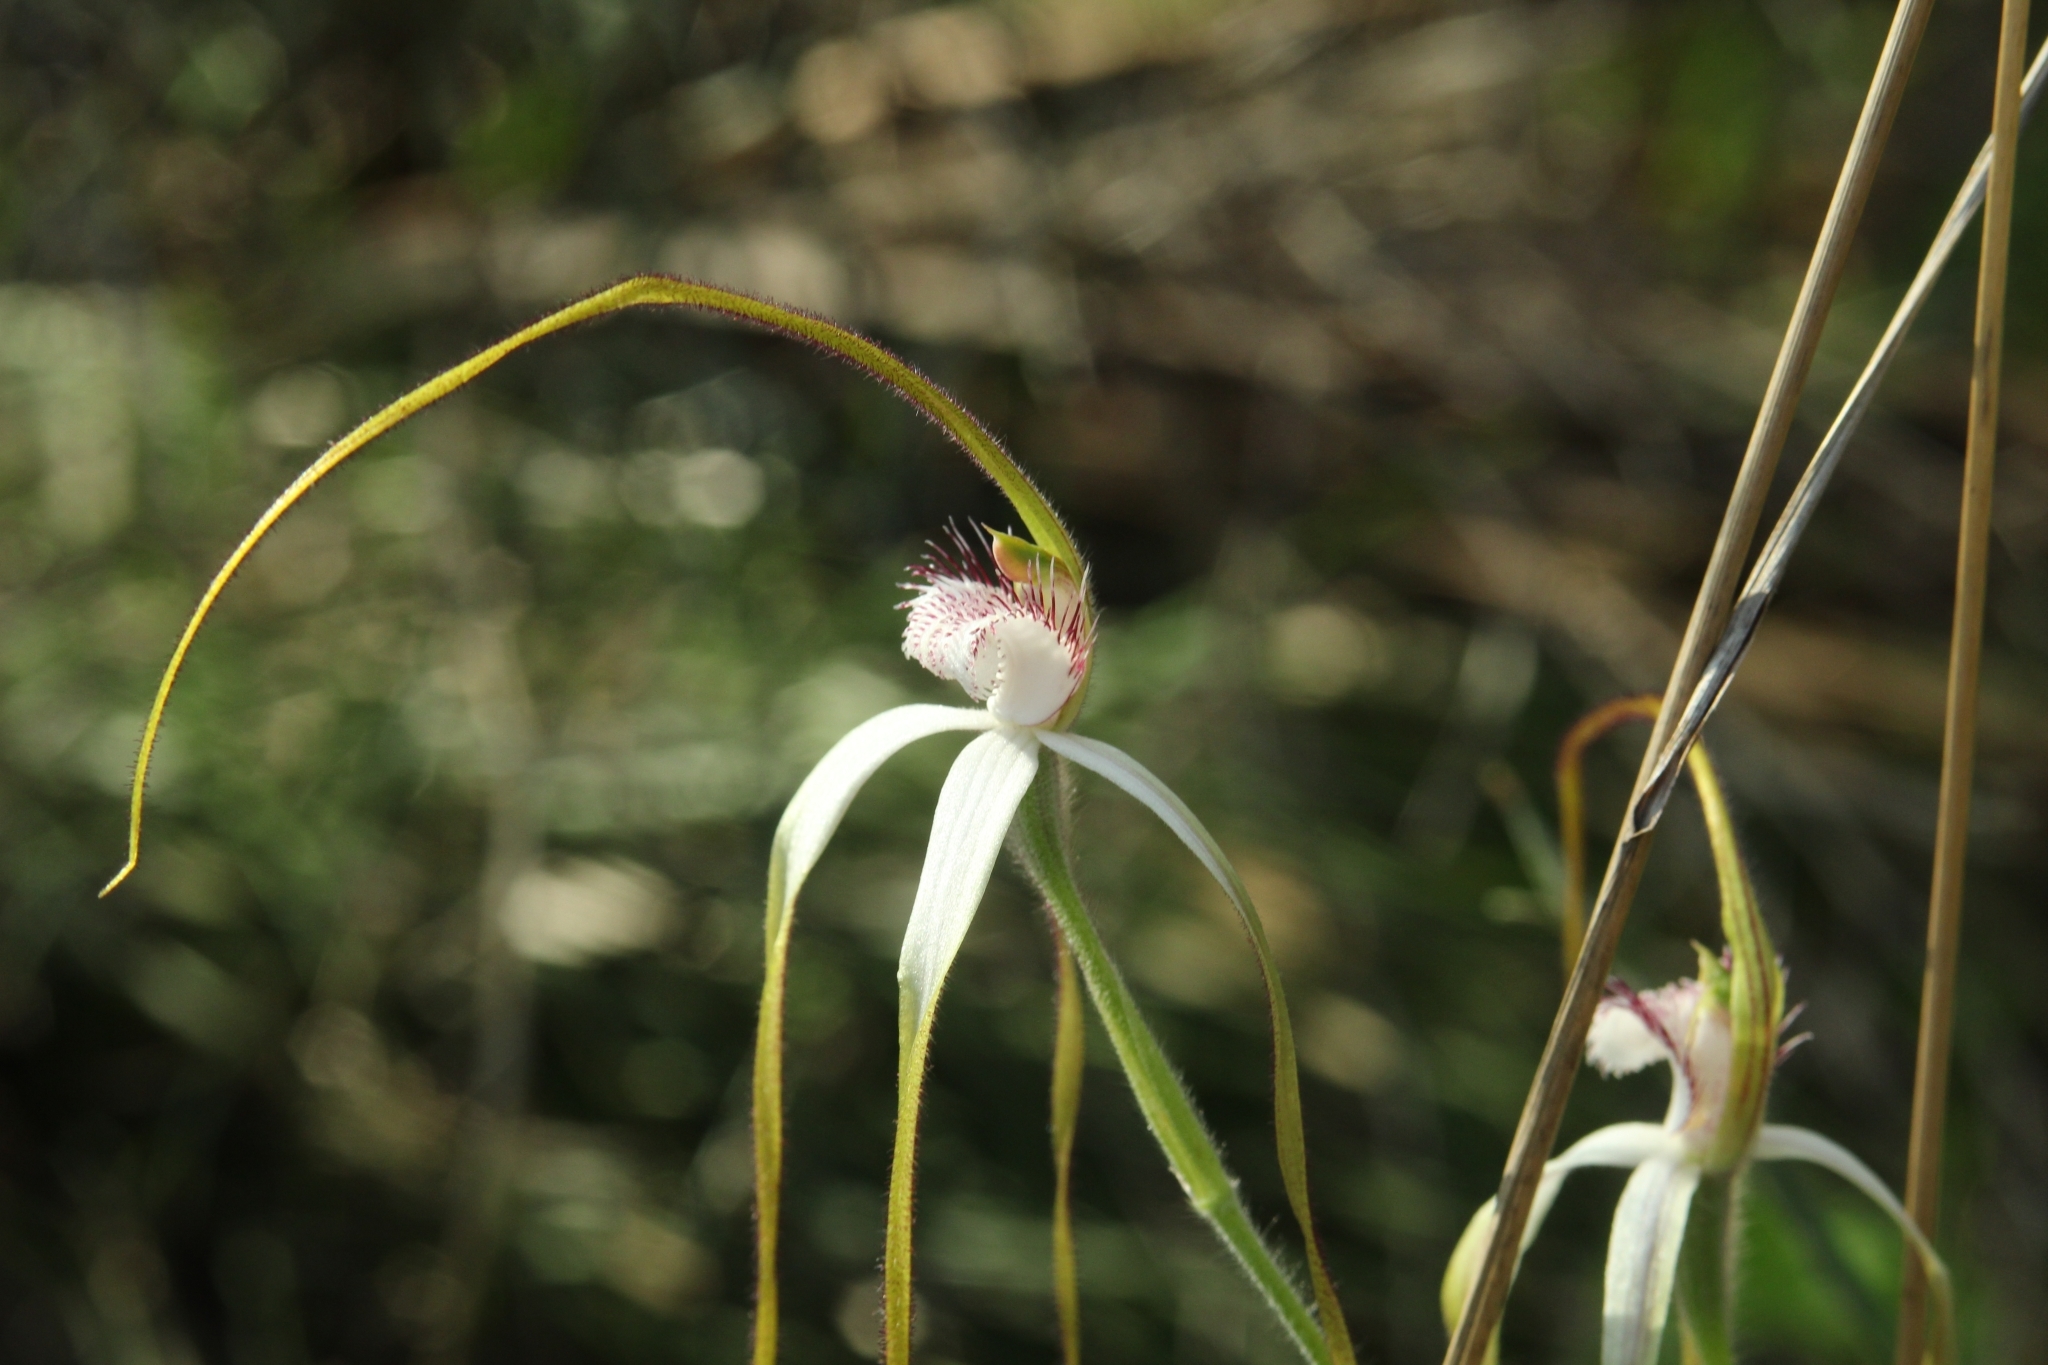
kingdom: Plantae
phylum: Tracheophyta
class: Liliopsida
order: Asparagales
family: Orchidaceae
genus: Caladenia
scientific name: Caladenia longicauda
